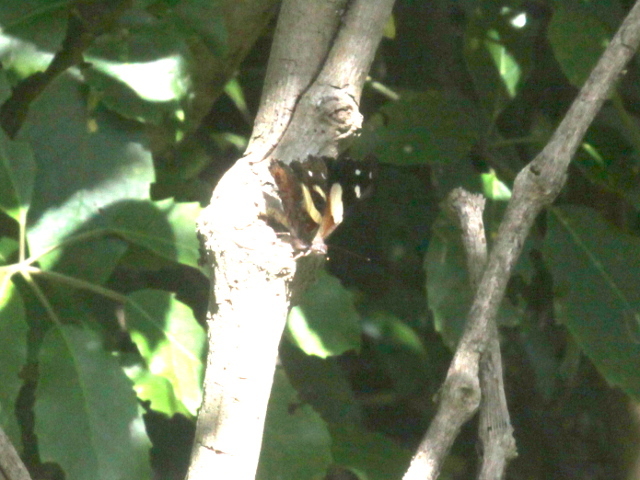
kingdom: Animalia
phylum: Arthropoda
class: Insecta
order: Lepidoptera
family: Nymphalidae
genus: Vanessa
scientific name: Vanessa itea
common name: Yellow admiral
